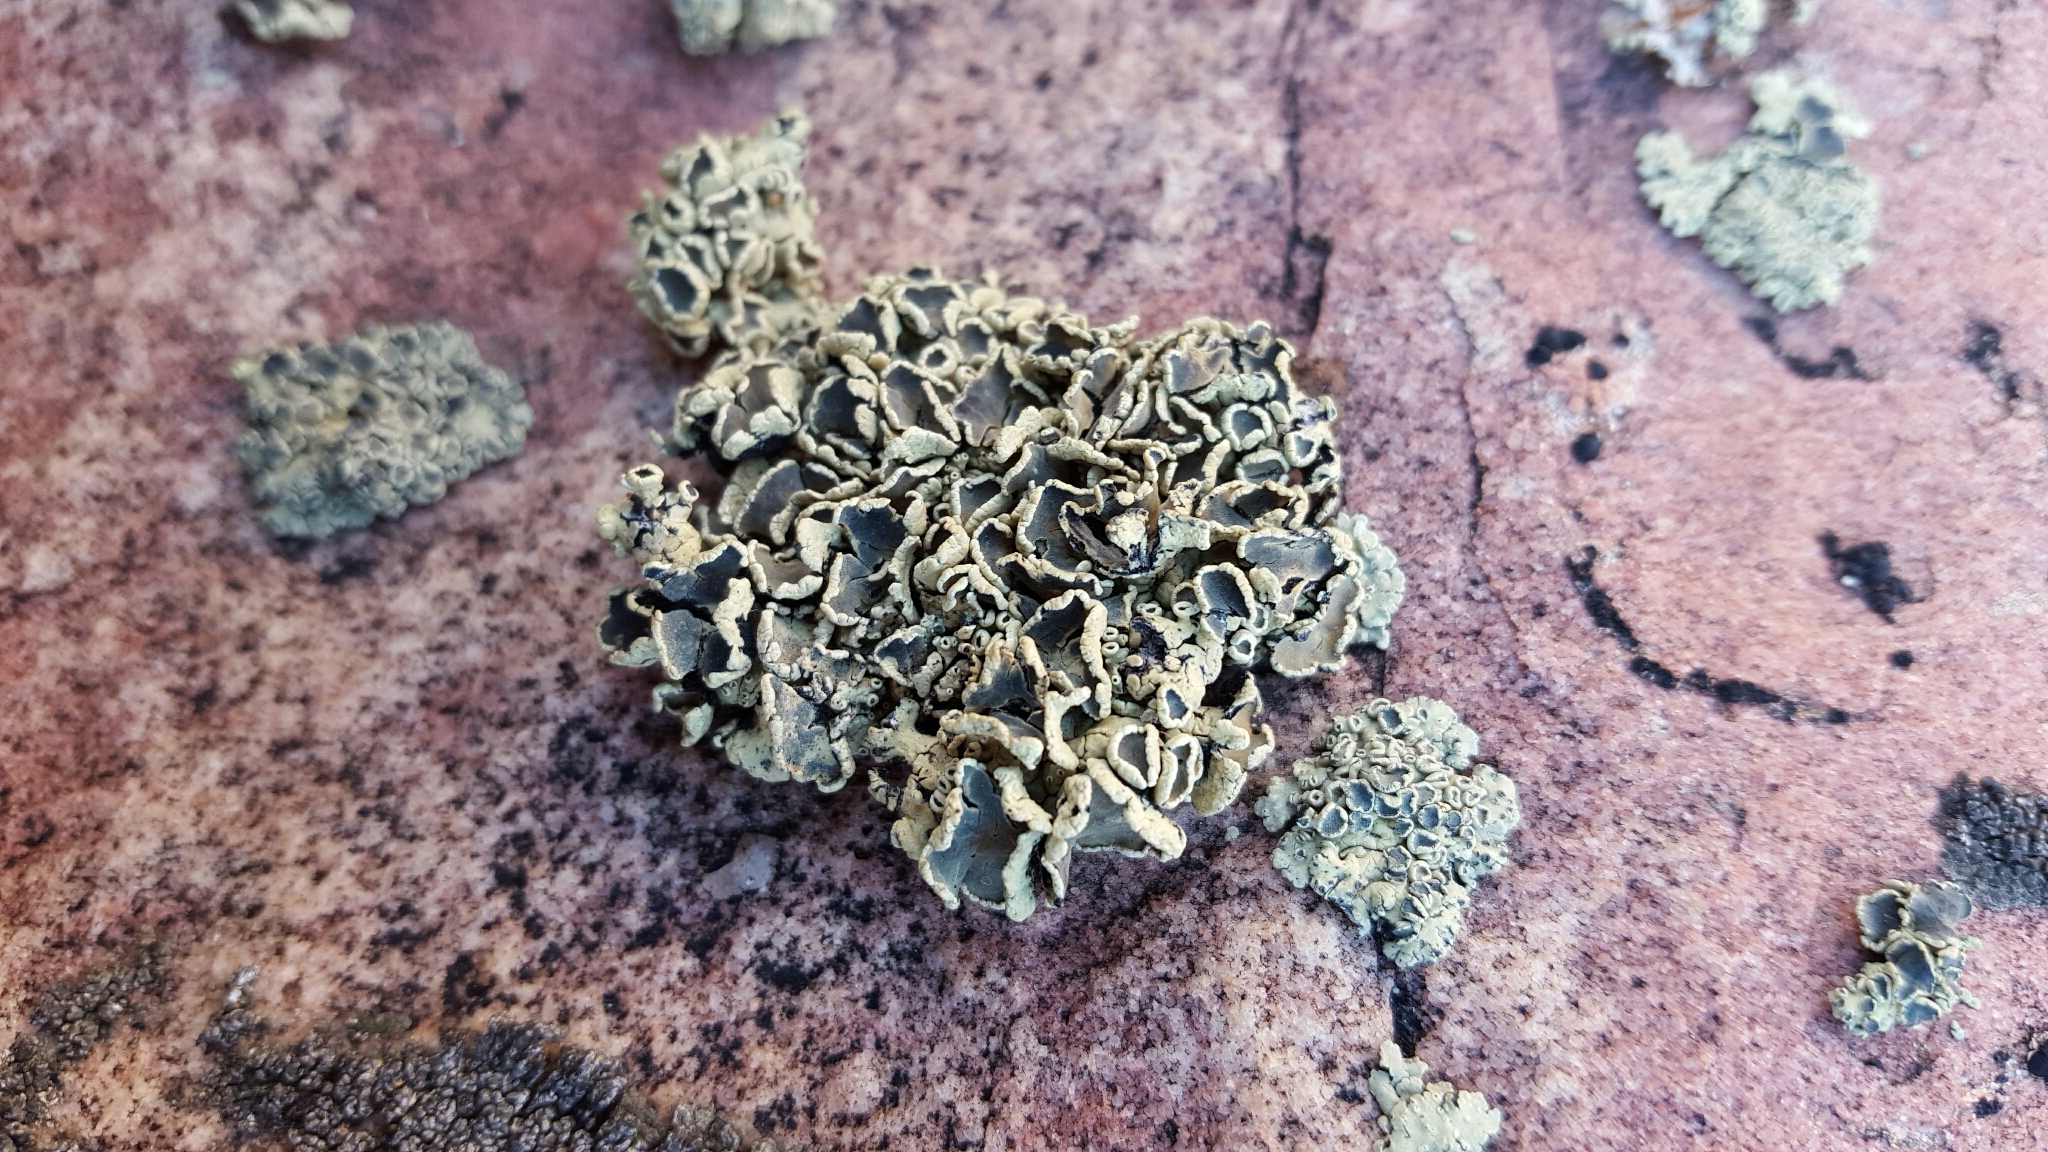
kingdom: Fungi
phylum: Ascomycota
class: Lecanoromycetes
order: Lecanorales
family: Lecanoraceae
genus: Rhizoplaca
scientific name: Rhizoplaca melanophthalma
